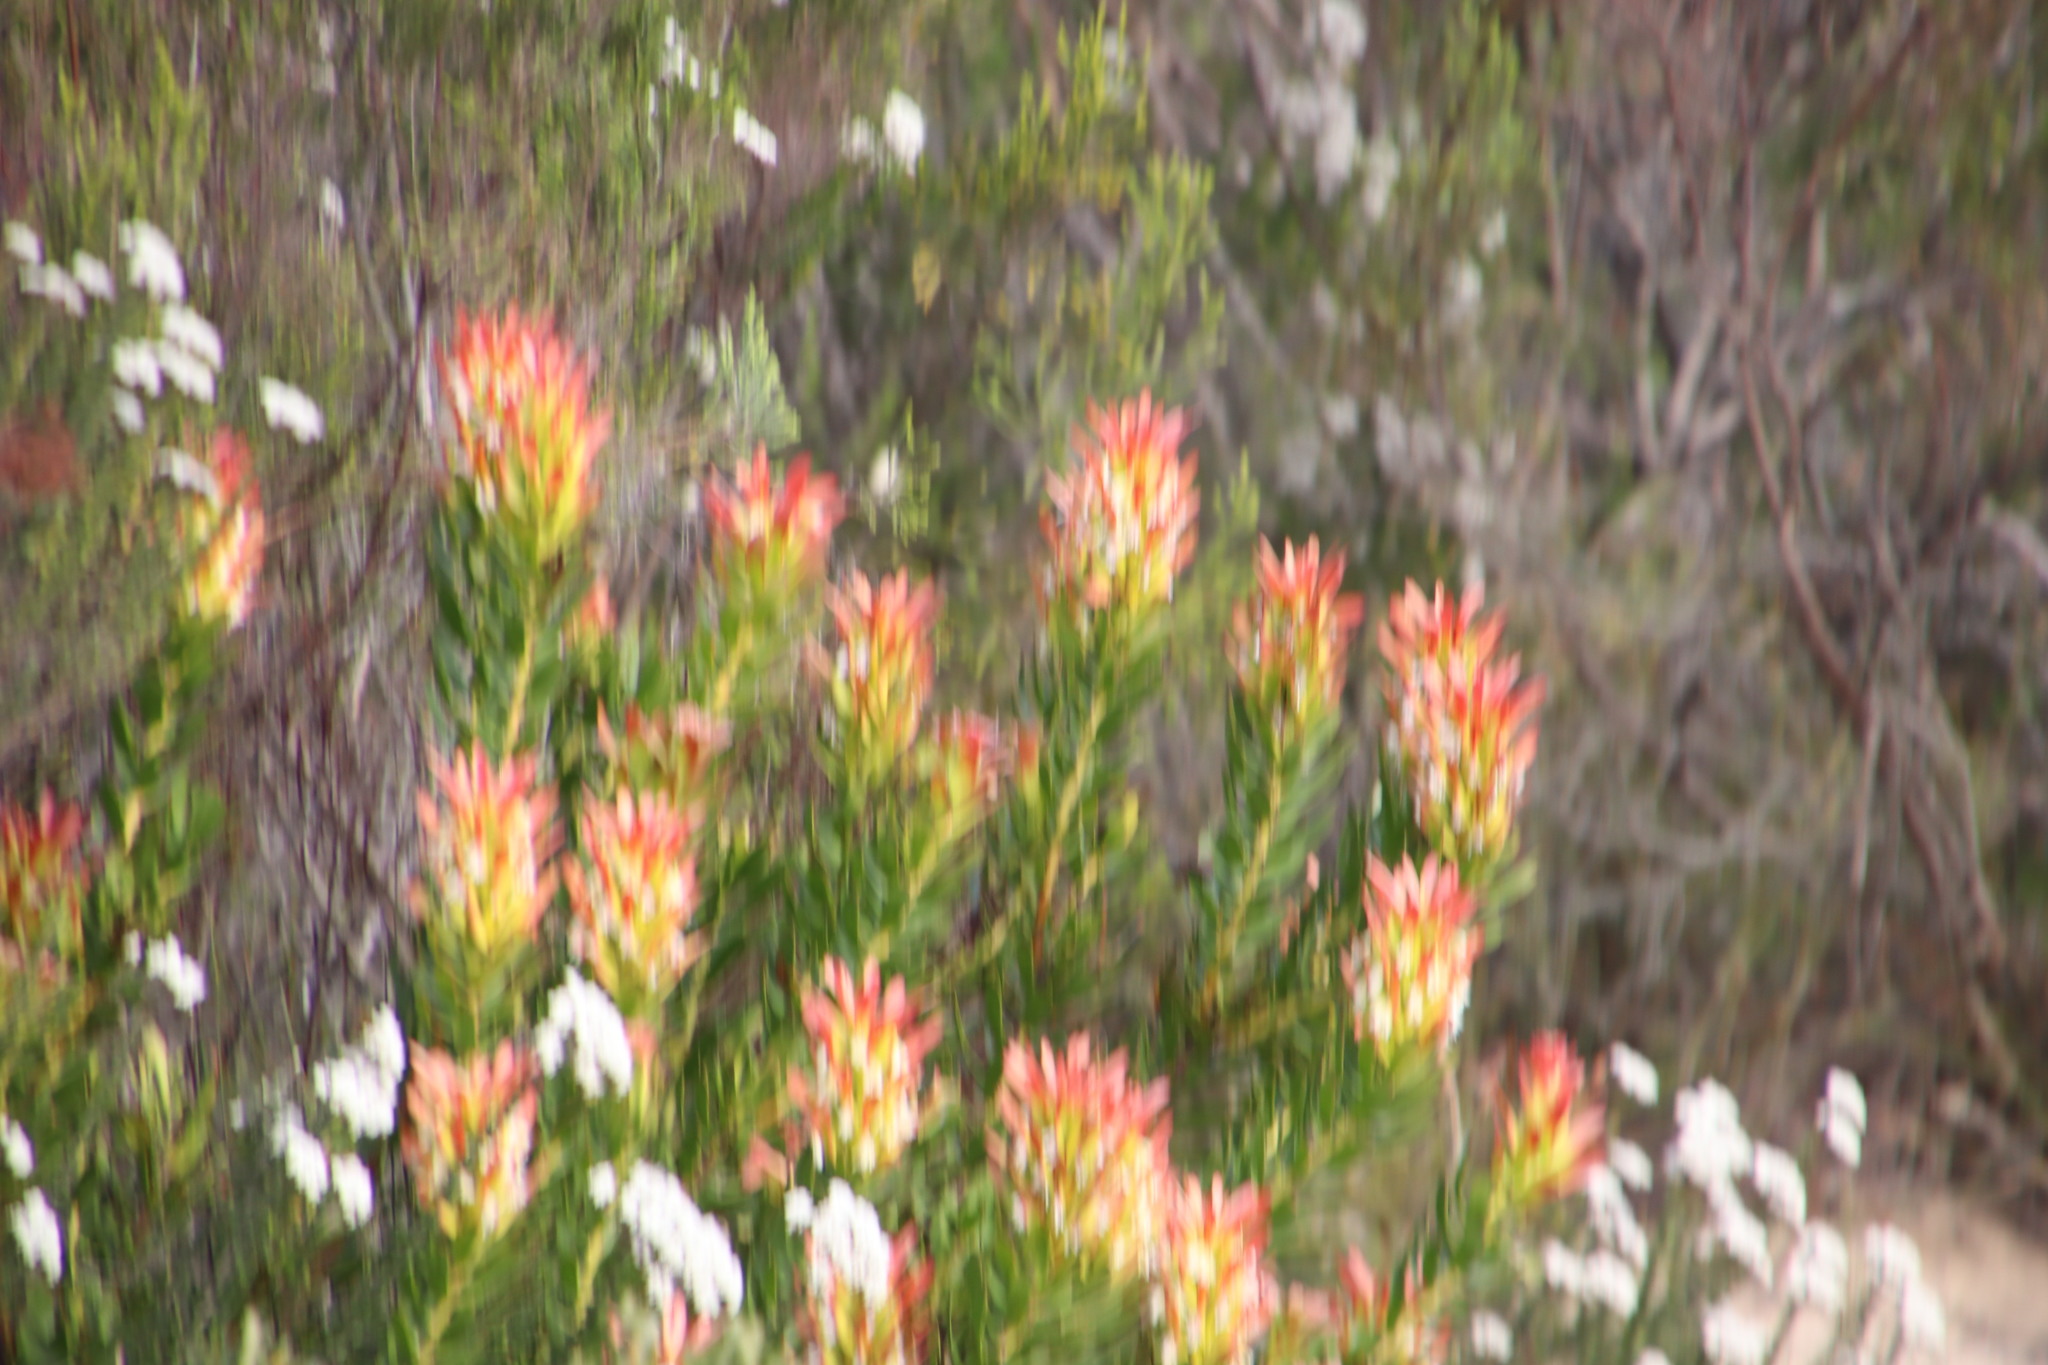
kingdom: Plantae
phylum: Tracheophyta
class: Magnoliopsida
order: Proteales
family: Proteaceae
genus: Mimetes
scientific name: Mimetes cucullatus
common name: Common pagoda
